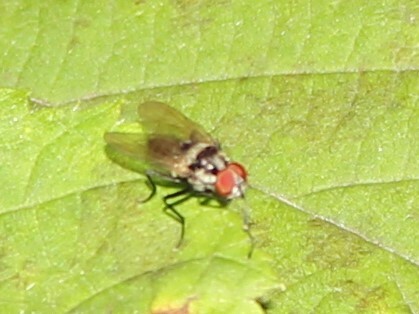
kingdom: Animalia
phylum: Arthropoda
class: Insecta
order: Diptera
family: Anthomyiidae
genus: Anthomyia
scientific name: Anthomyia oculifera
